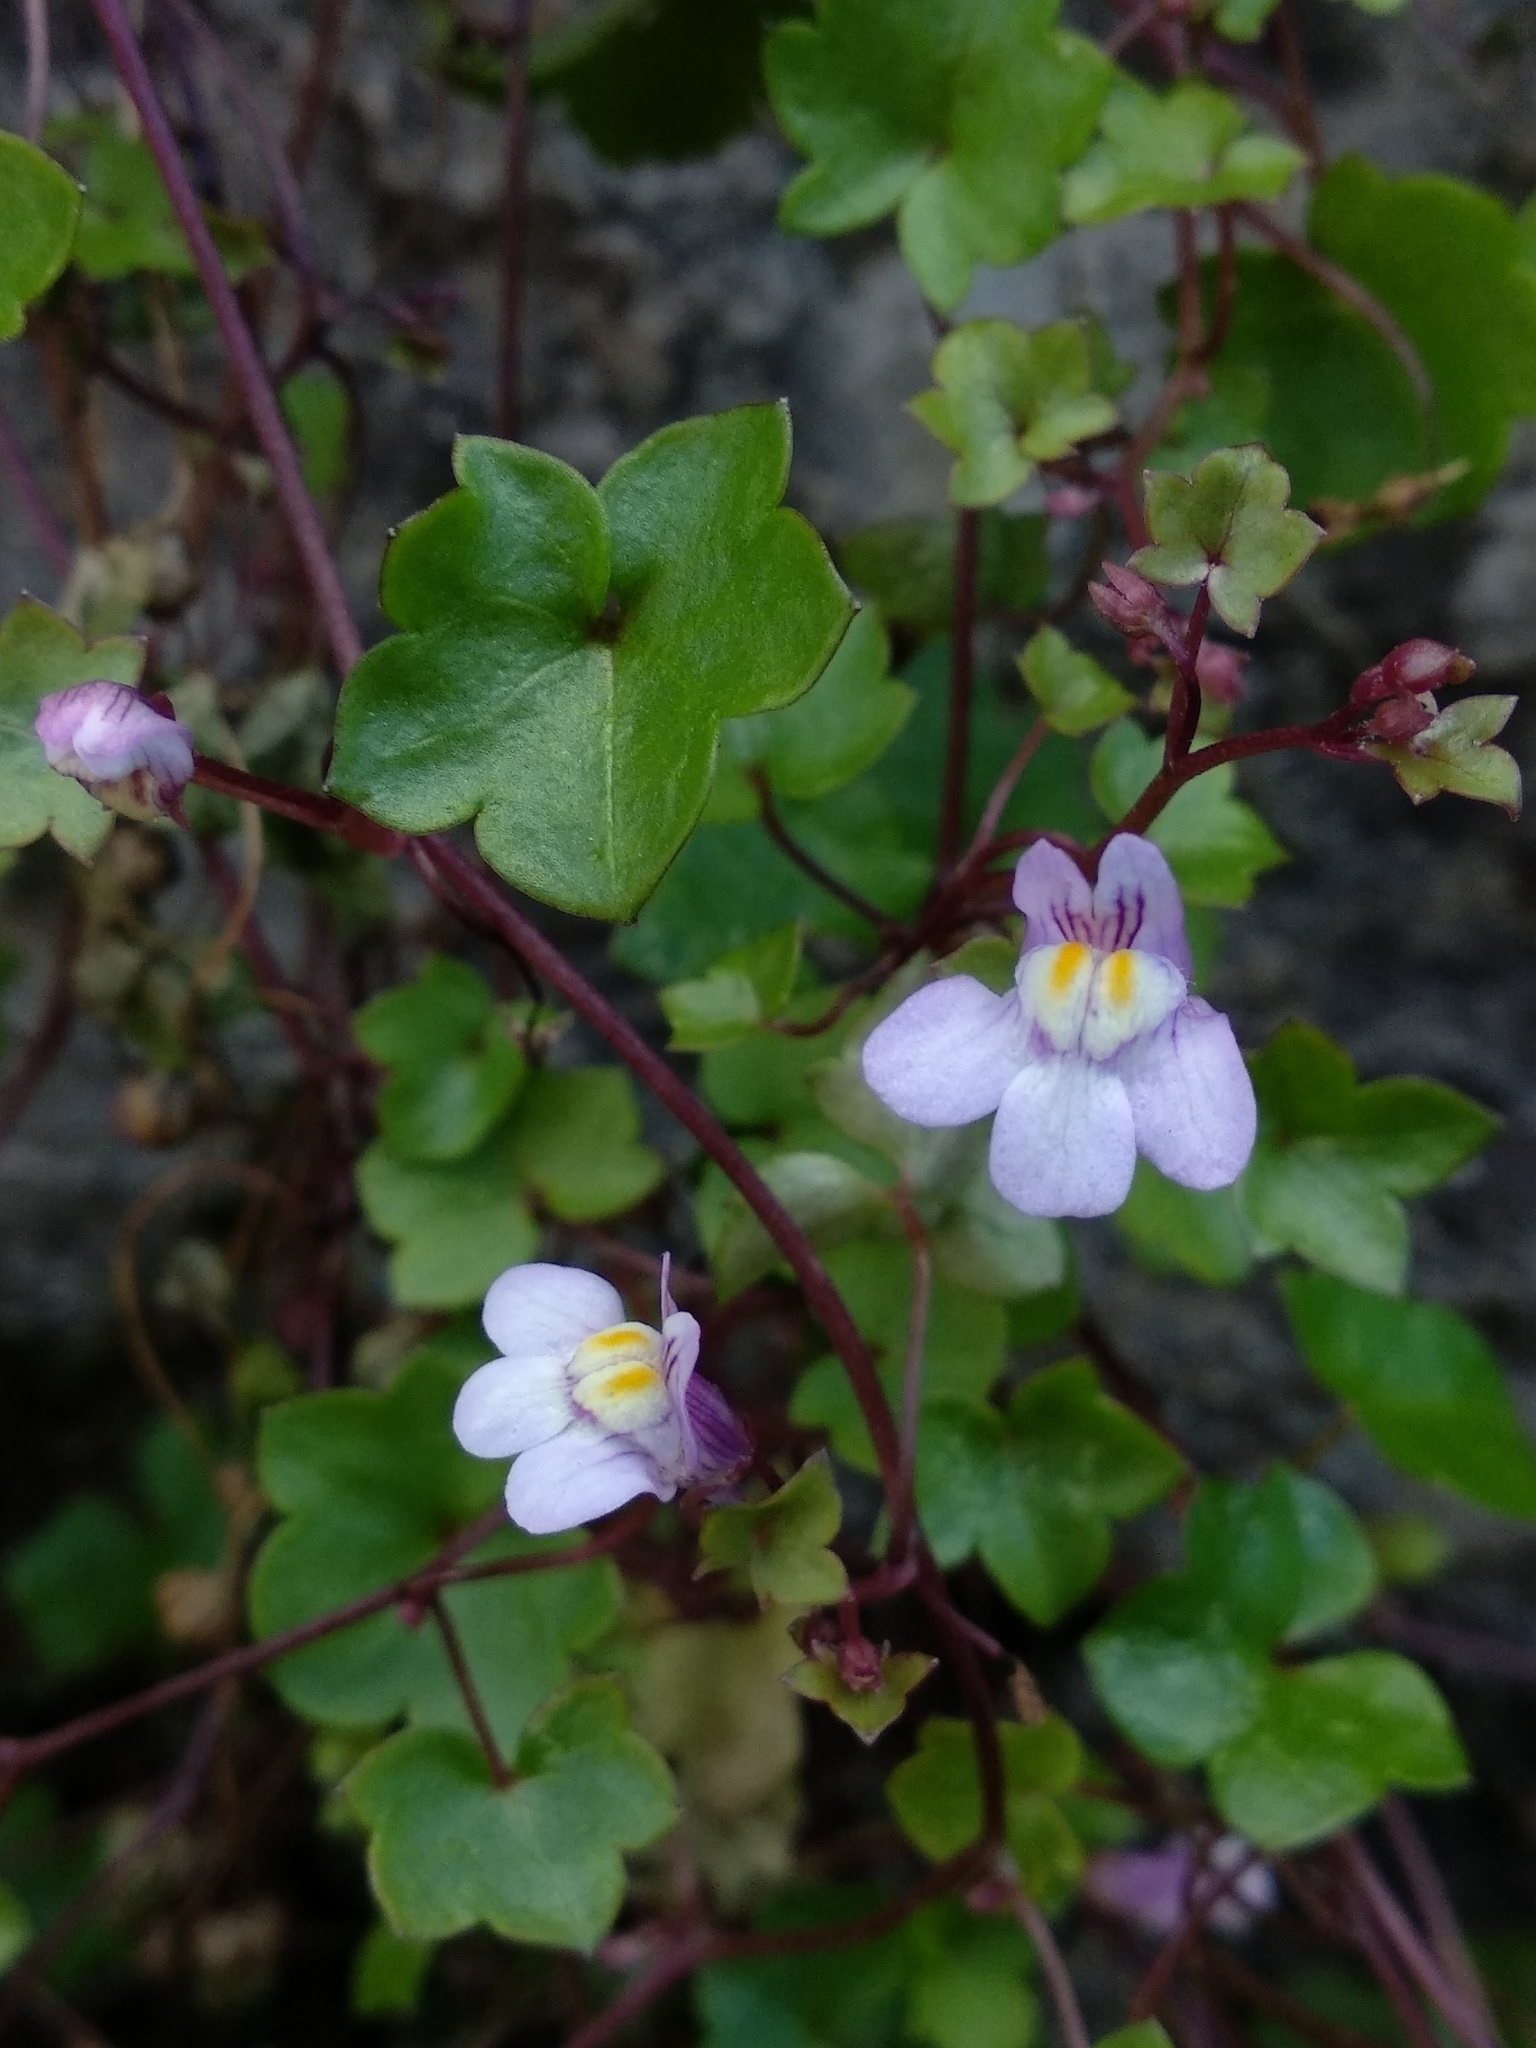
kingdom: Plantae
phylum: Tracheophyta
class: Magnoliopsida
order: Lamiales
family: Plantaginaceae
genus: Cymbalaria
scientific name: Cymbalaria muralis
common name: Ivy-leaved toadflax
